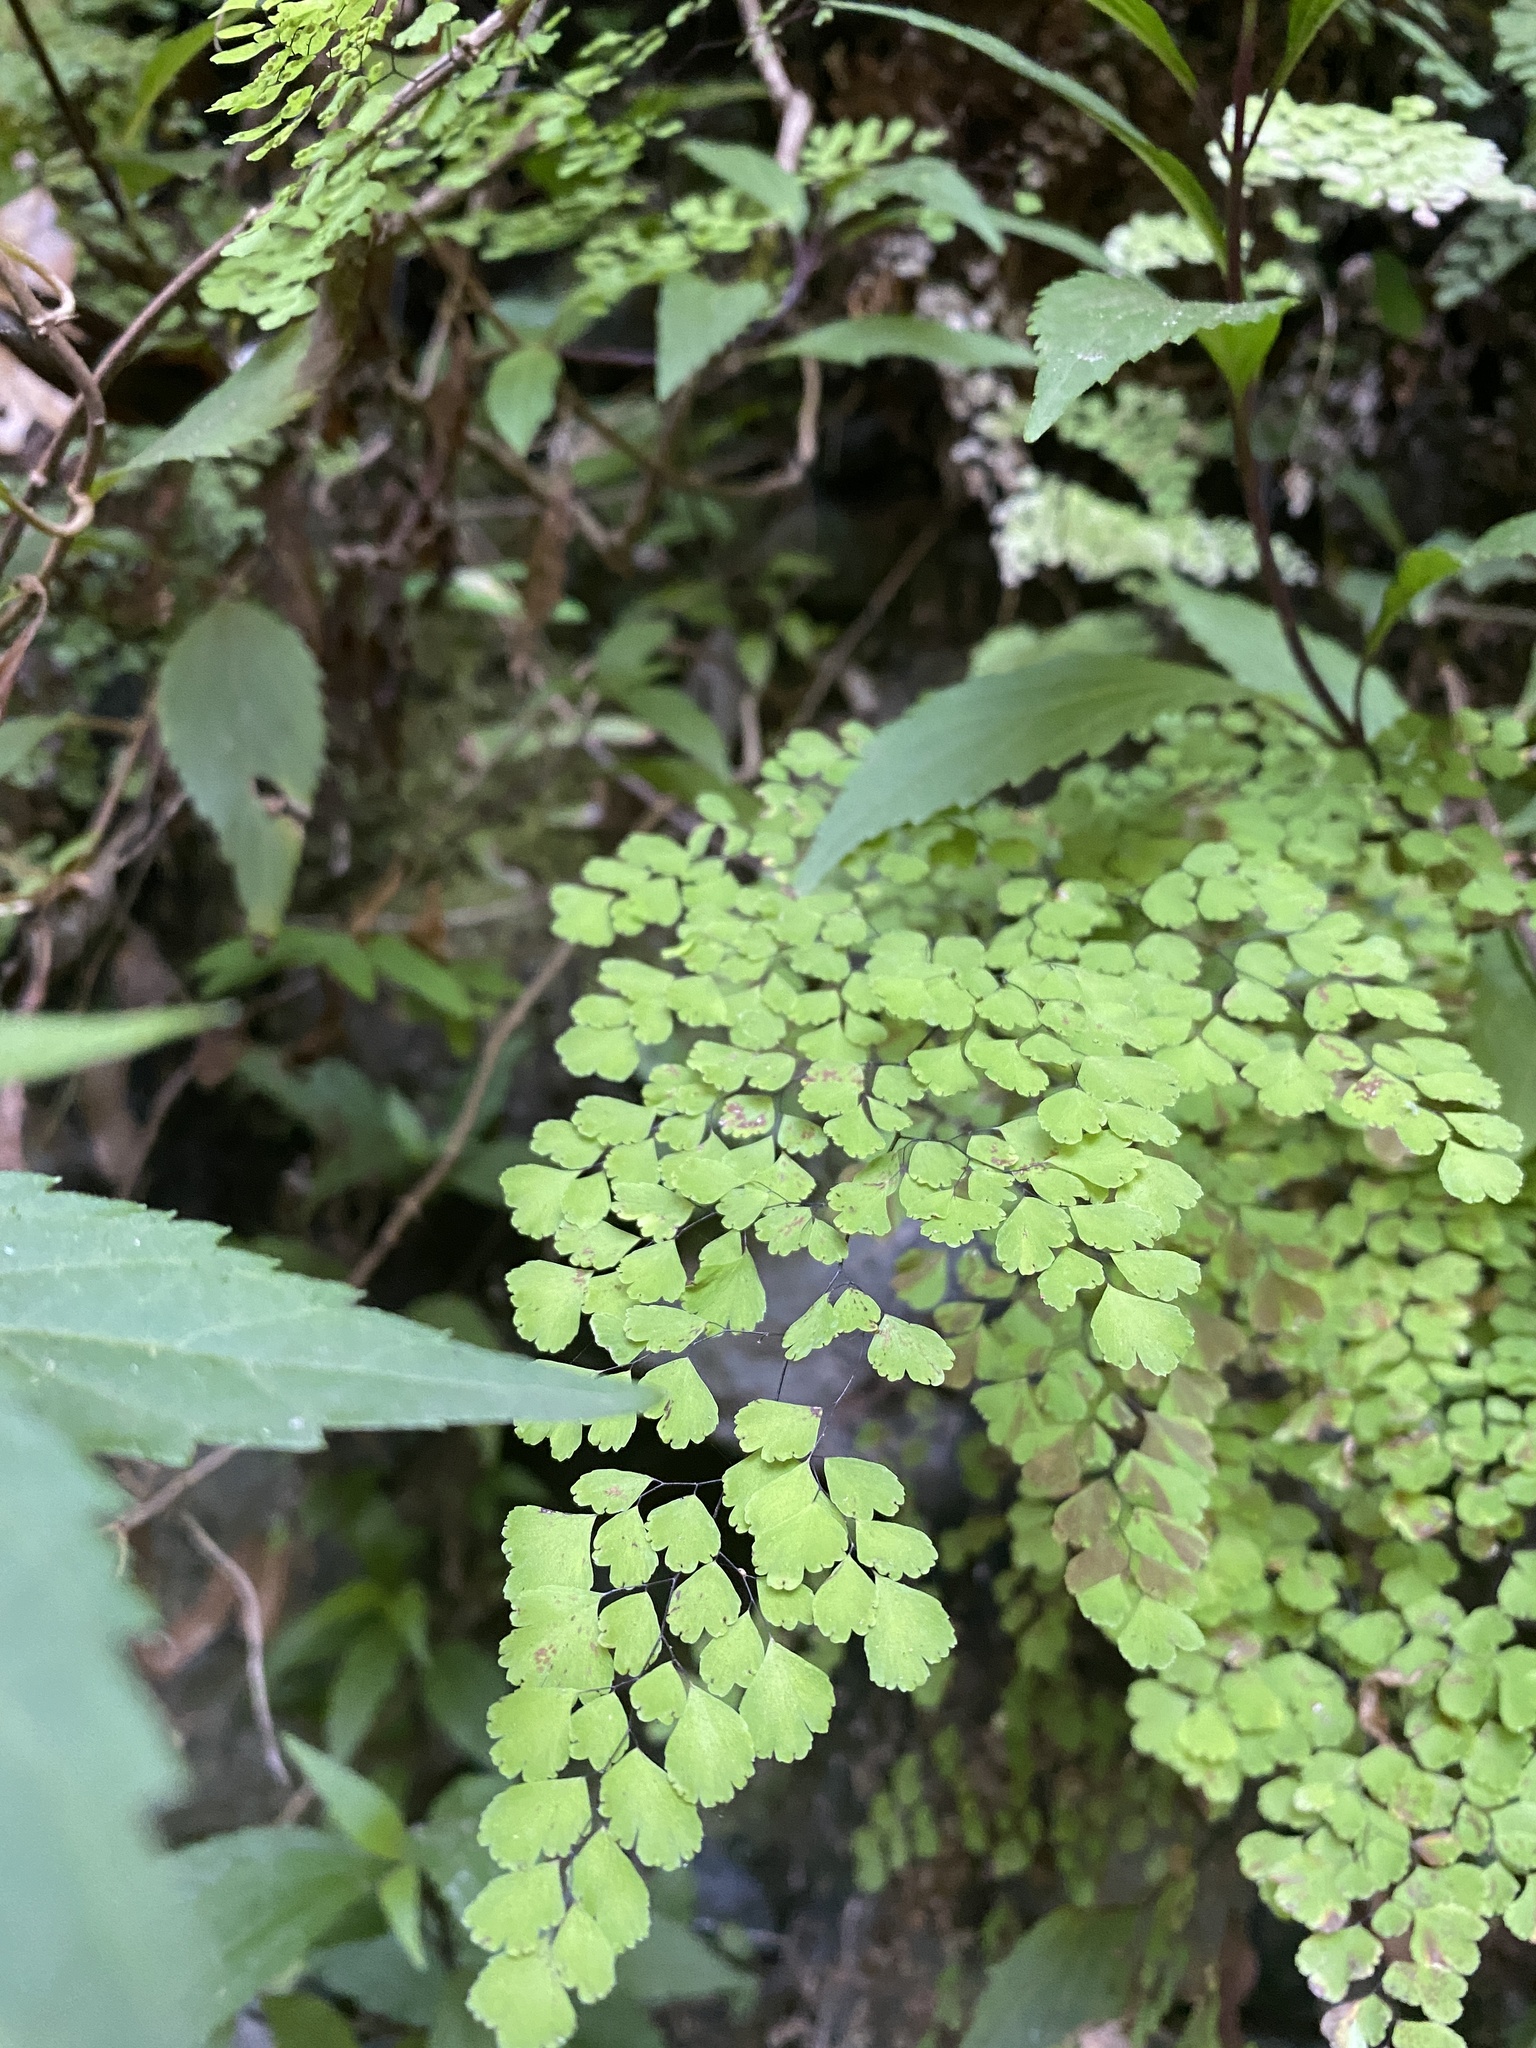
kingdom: Plantae
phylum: Tracheophyta
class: Polypodiopsida
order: Polypodiales
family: Pteridaceae
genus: Adiantum
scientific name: Adiantum raddianum
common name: Delta maidenhair fern
